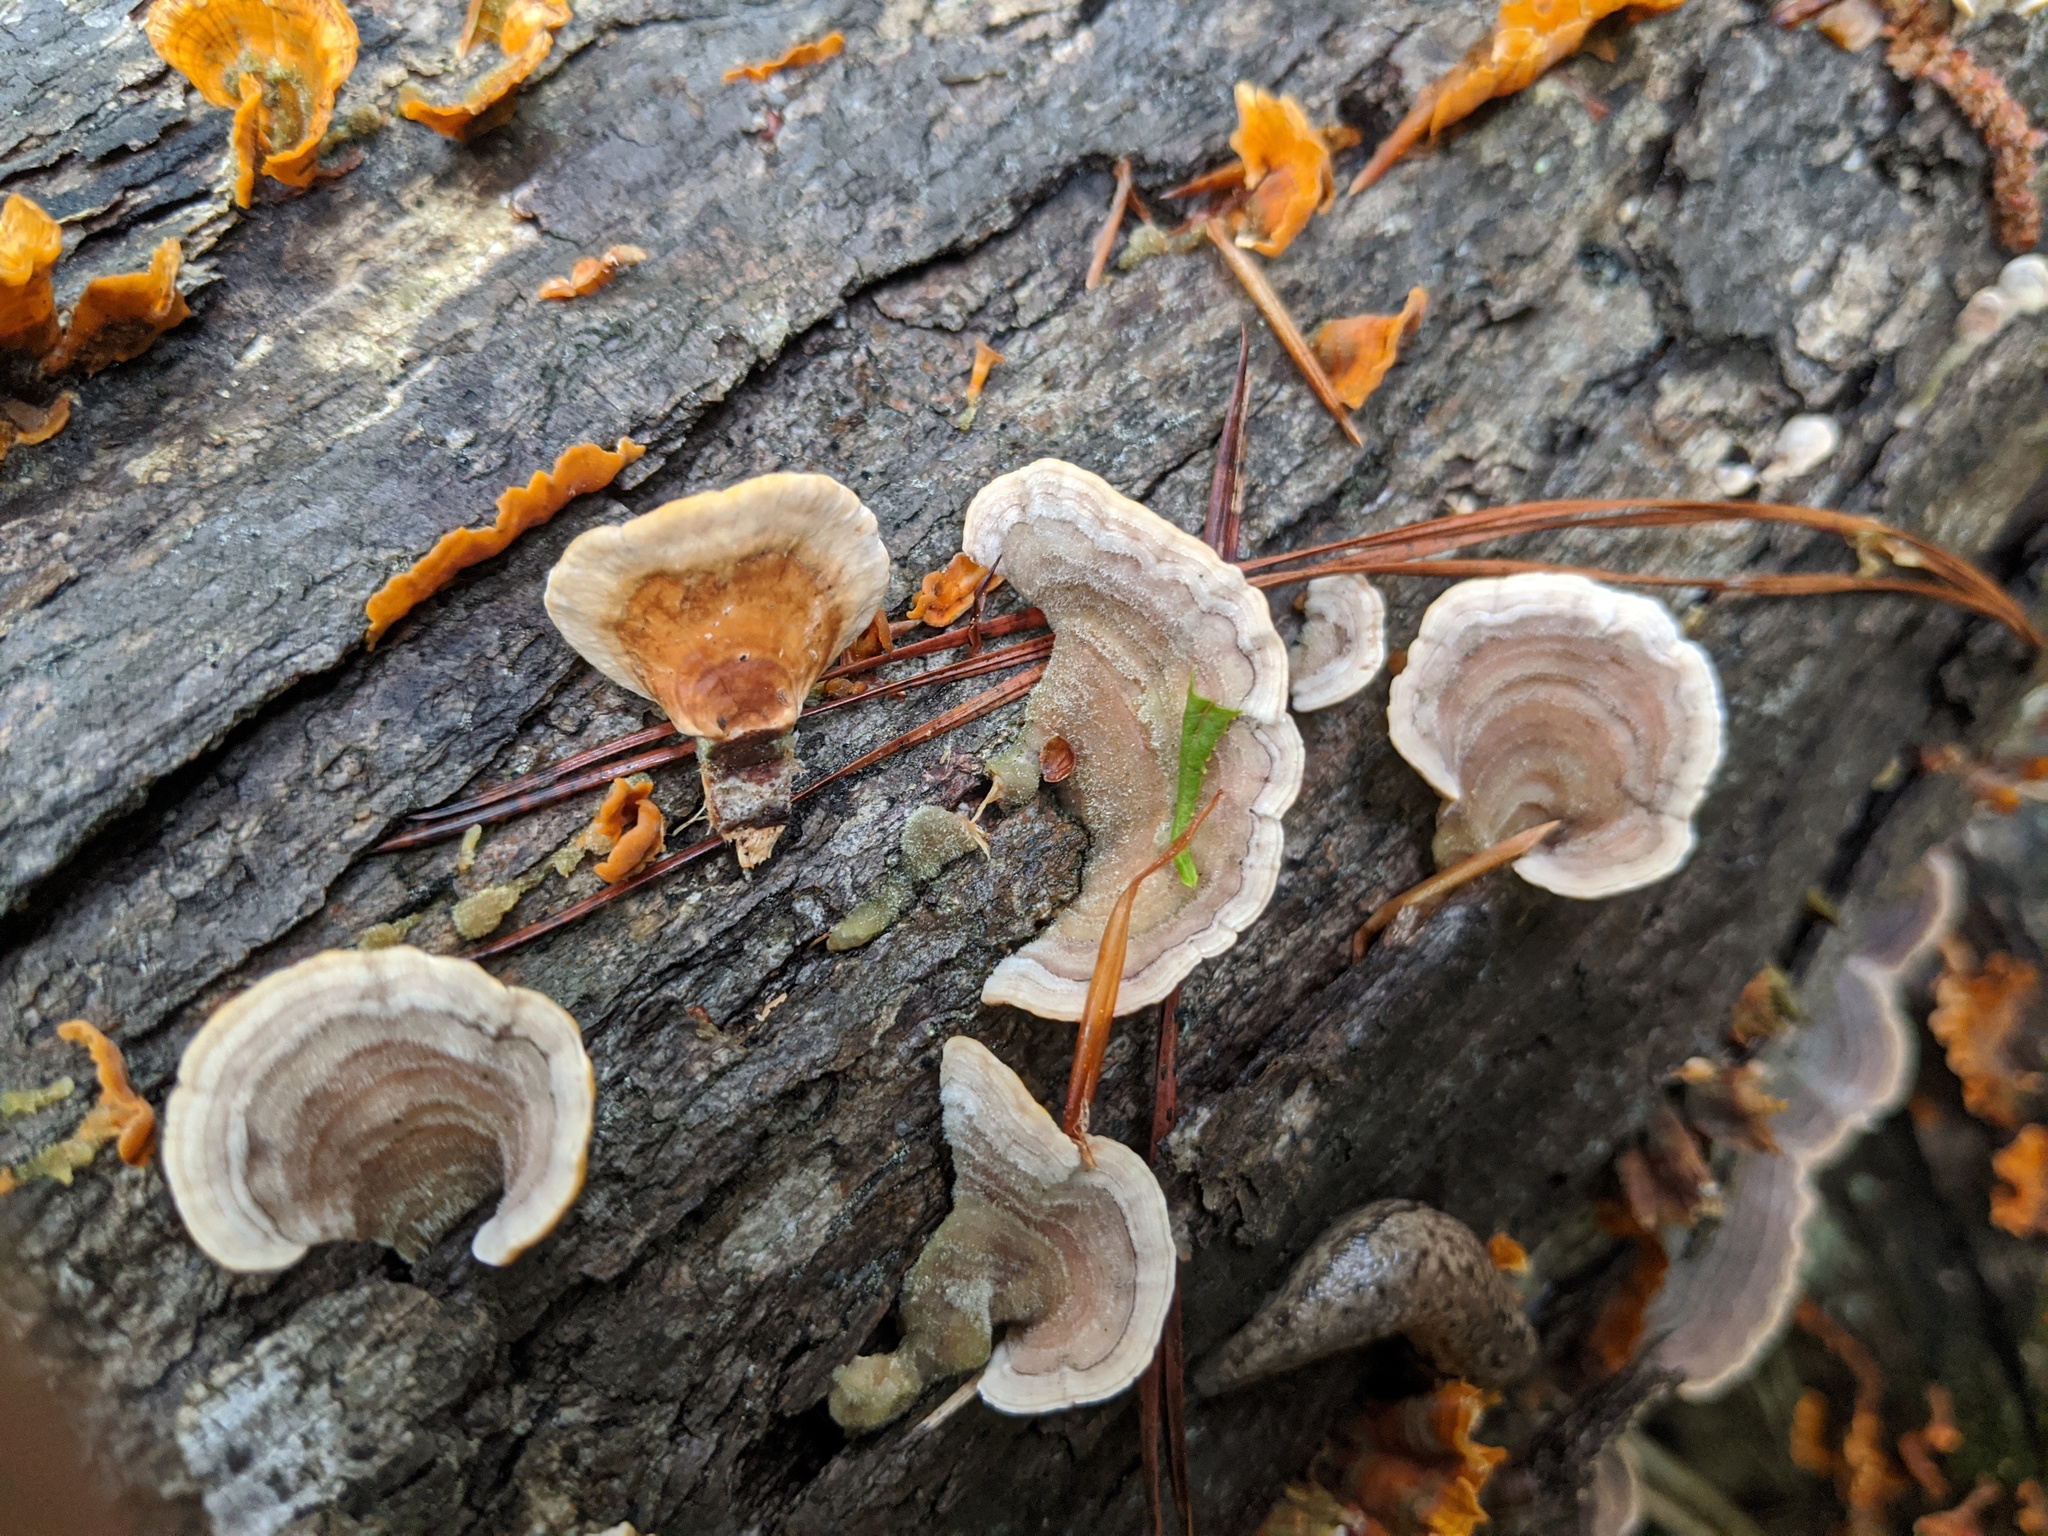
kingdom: Fungi
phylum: Basidiomycota
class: Agaricomycetes
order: Russulales
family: Stereaceae
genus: Stereum
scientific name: Stereum ostrea
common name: False turkeytail
